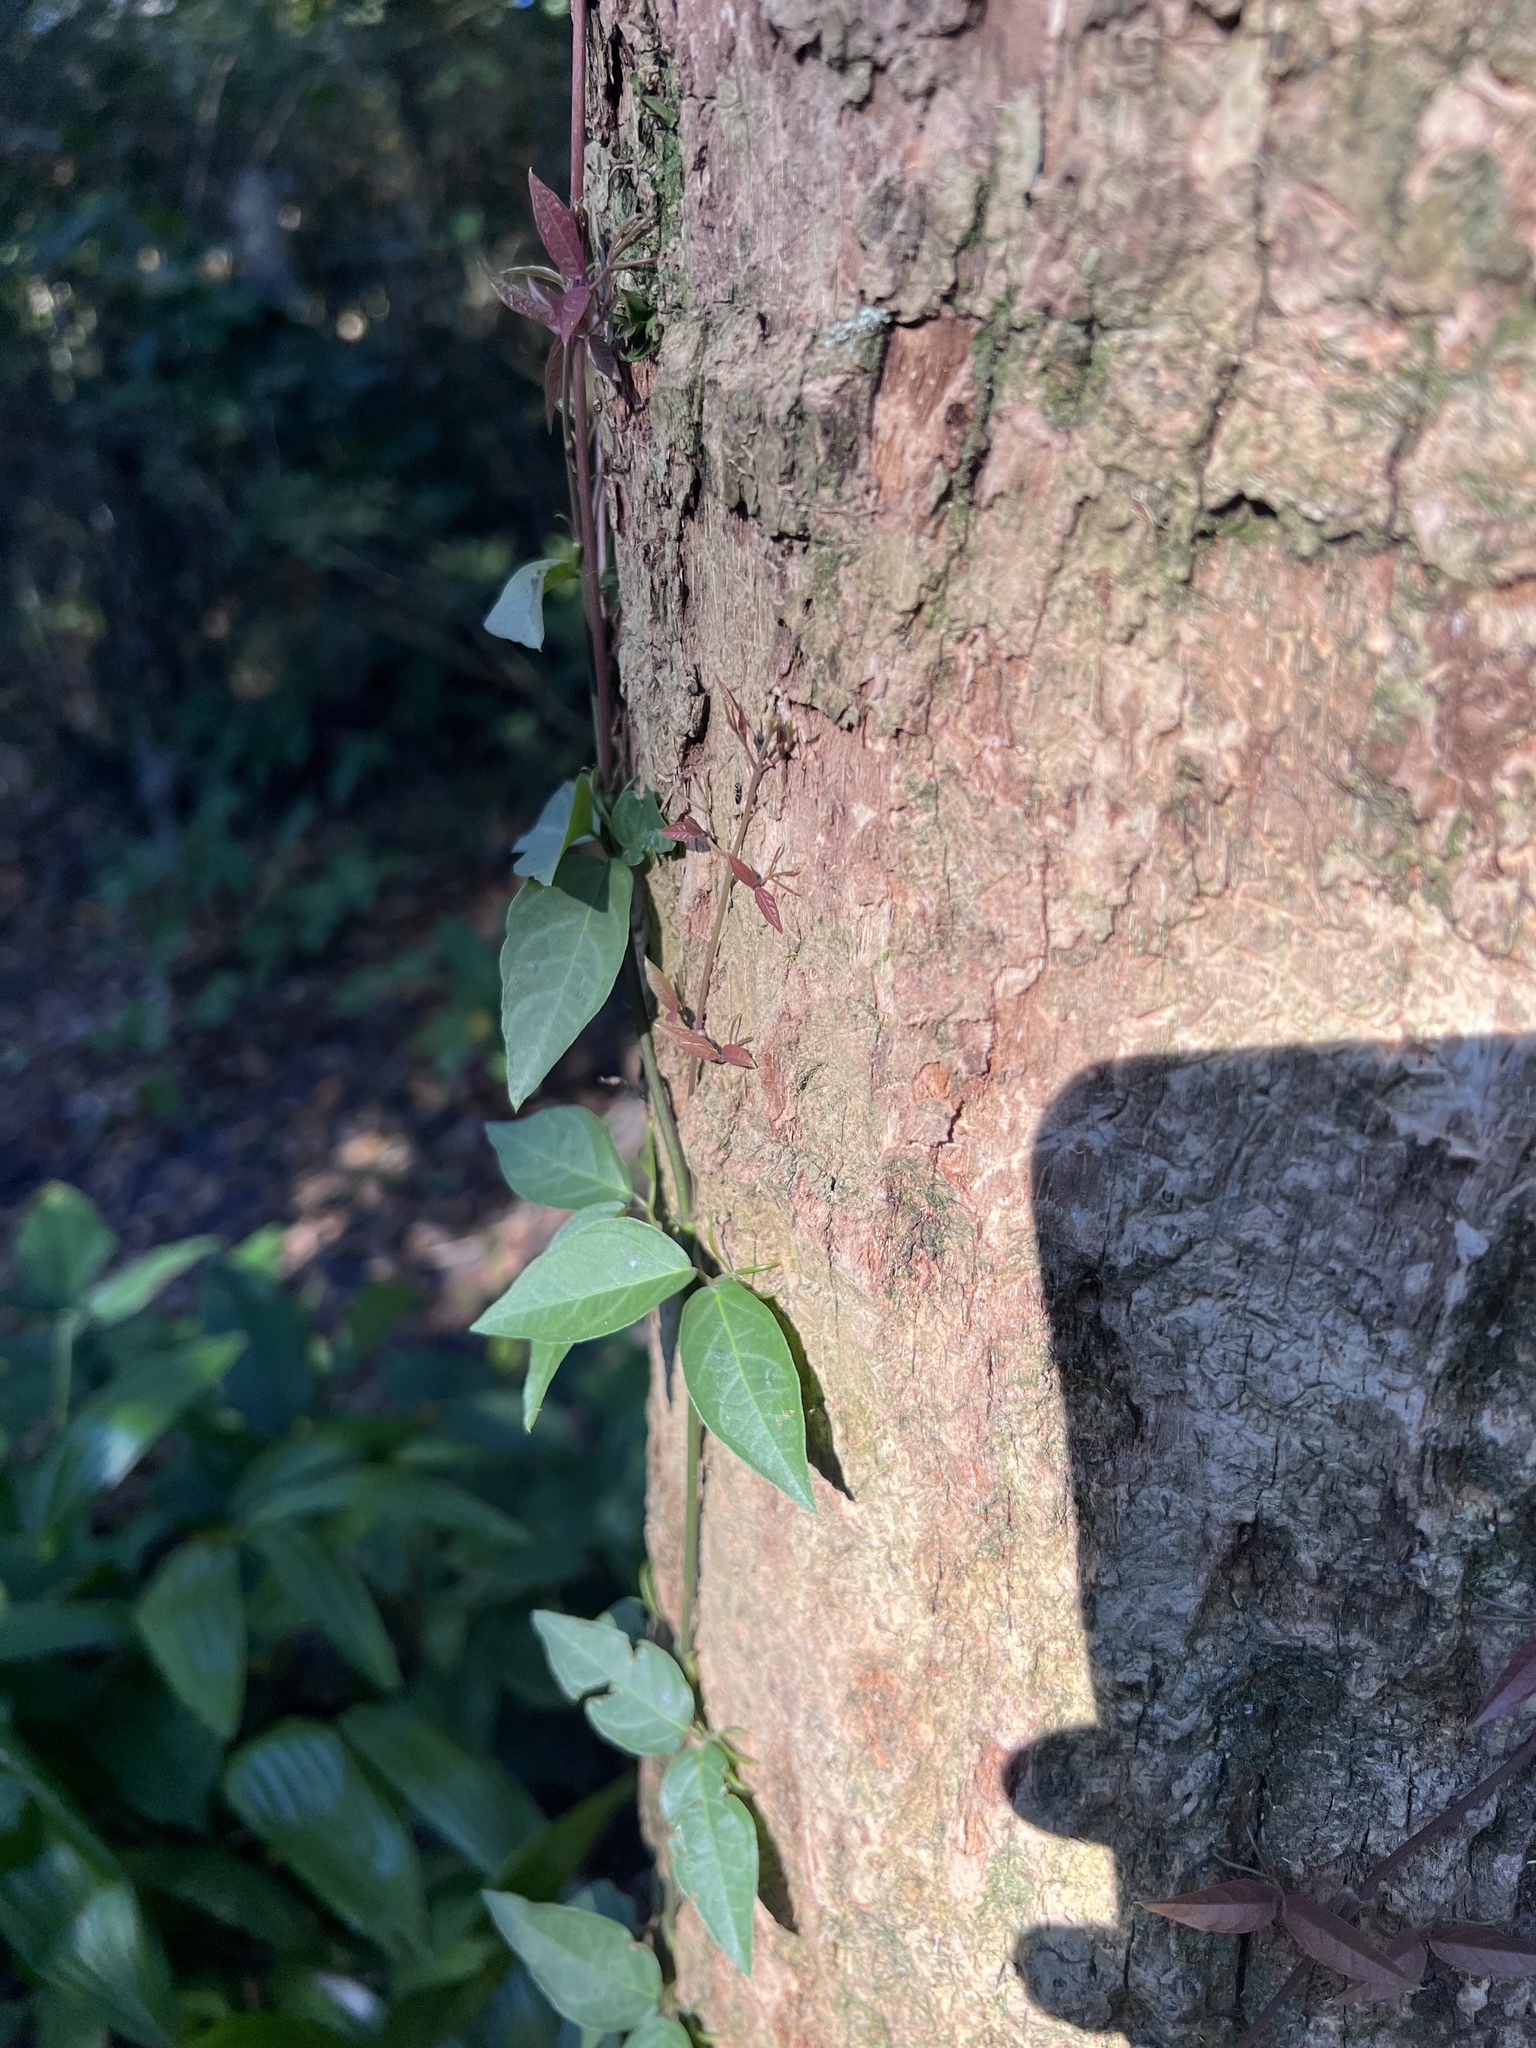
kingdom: Plantae
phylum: Tracheophyta
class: Magnoliopsida
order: Lamiales
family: Bignoniaceae
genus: Dolichandra
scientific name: Dolichandra unguis-cati
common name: Catclaw vine
